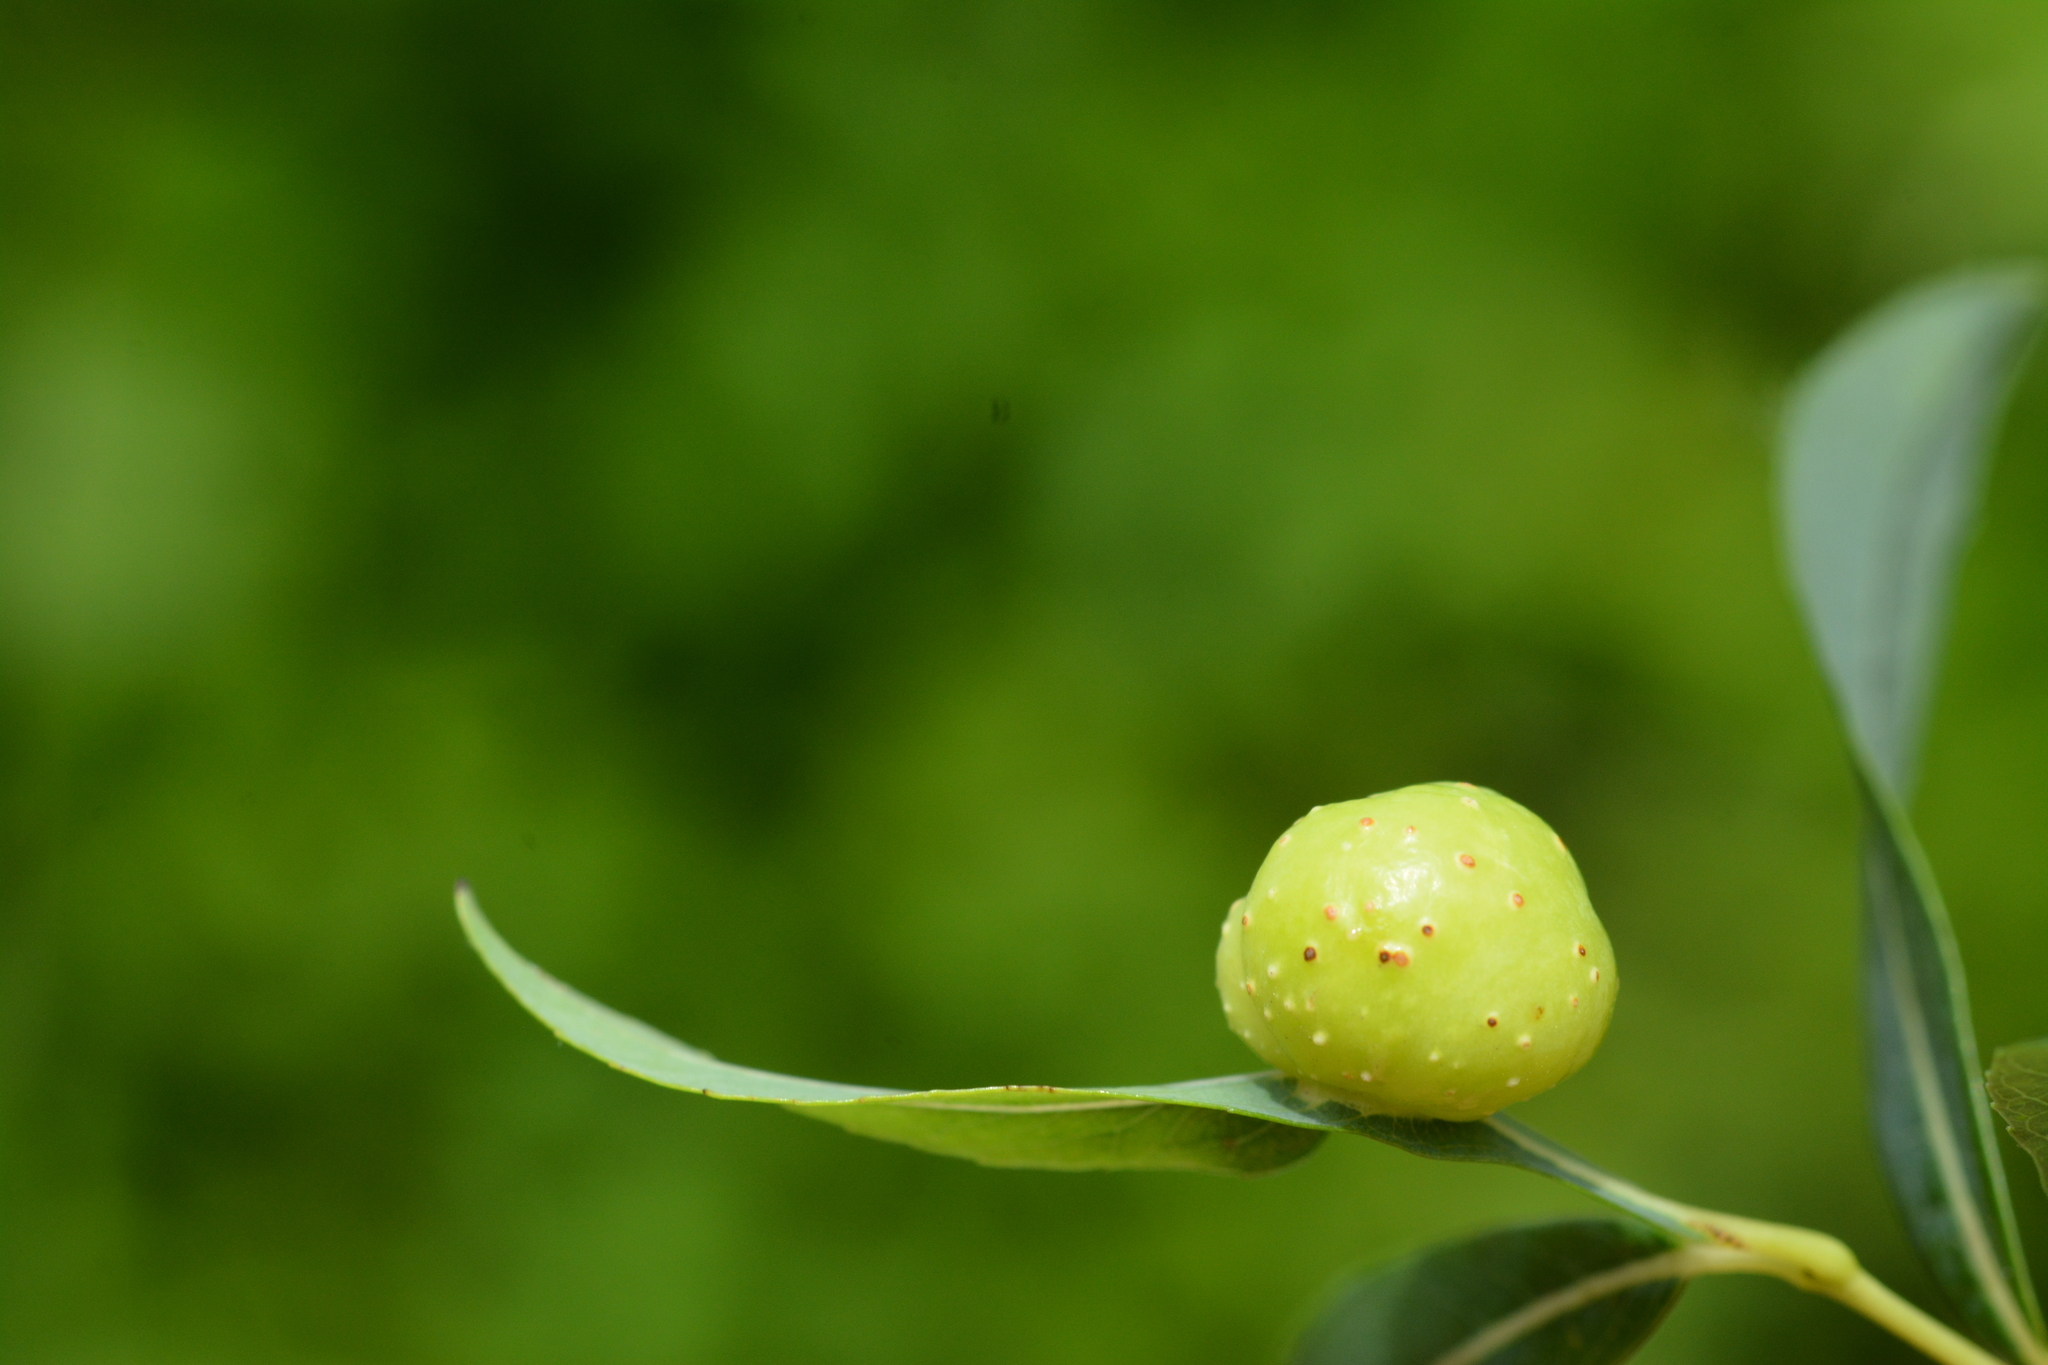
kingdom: Animalia
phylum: Arthropoda
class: Insecta
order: Hymenoptera
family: Tenthredinidae
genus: Euura
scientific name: Euura viminalis
